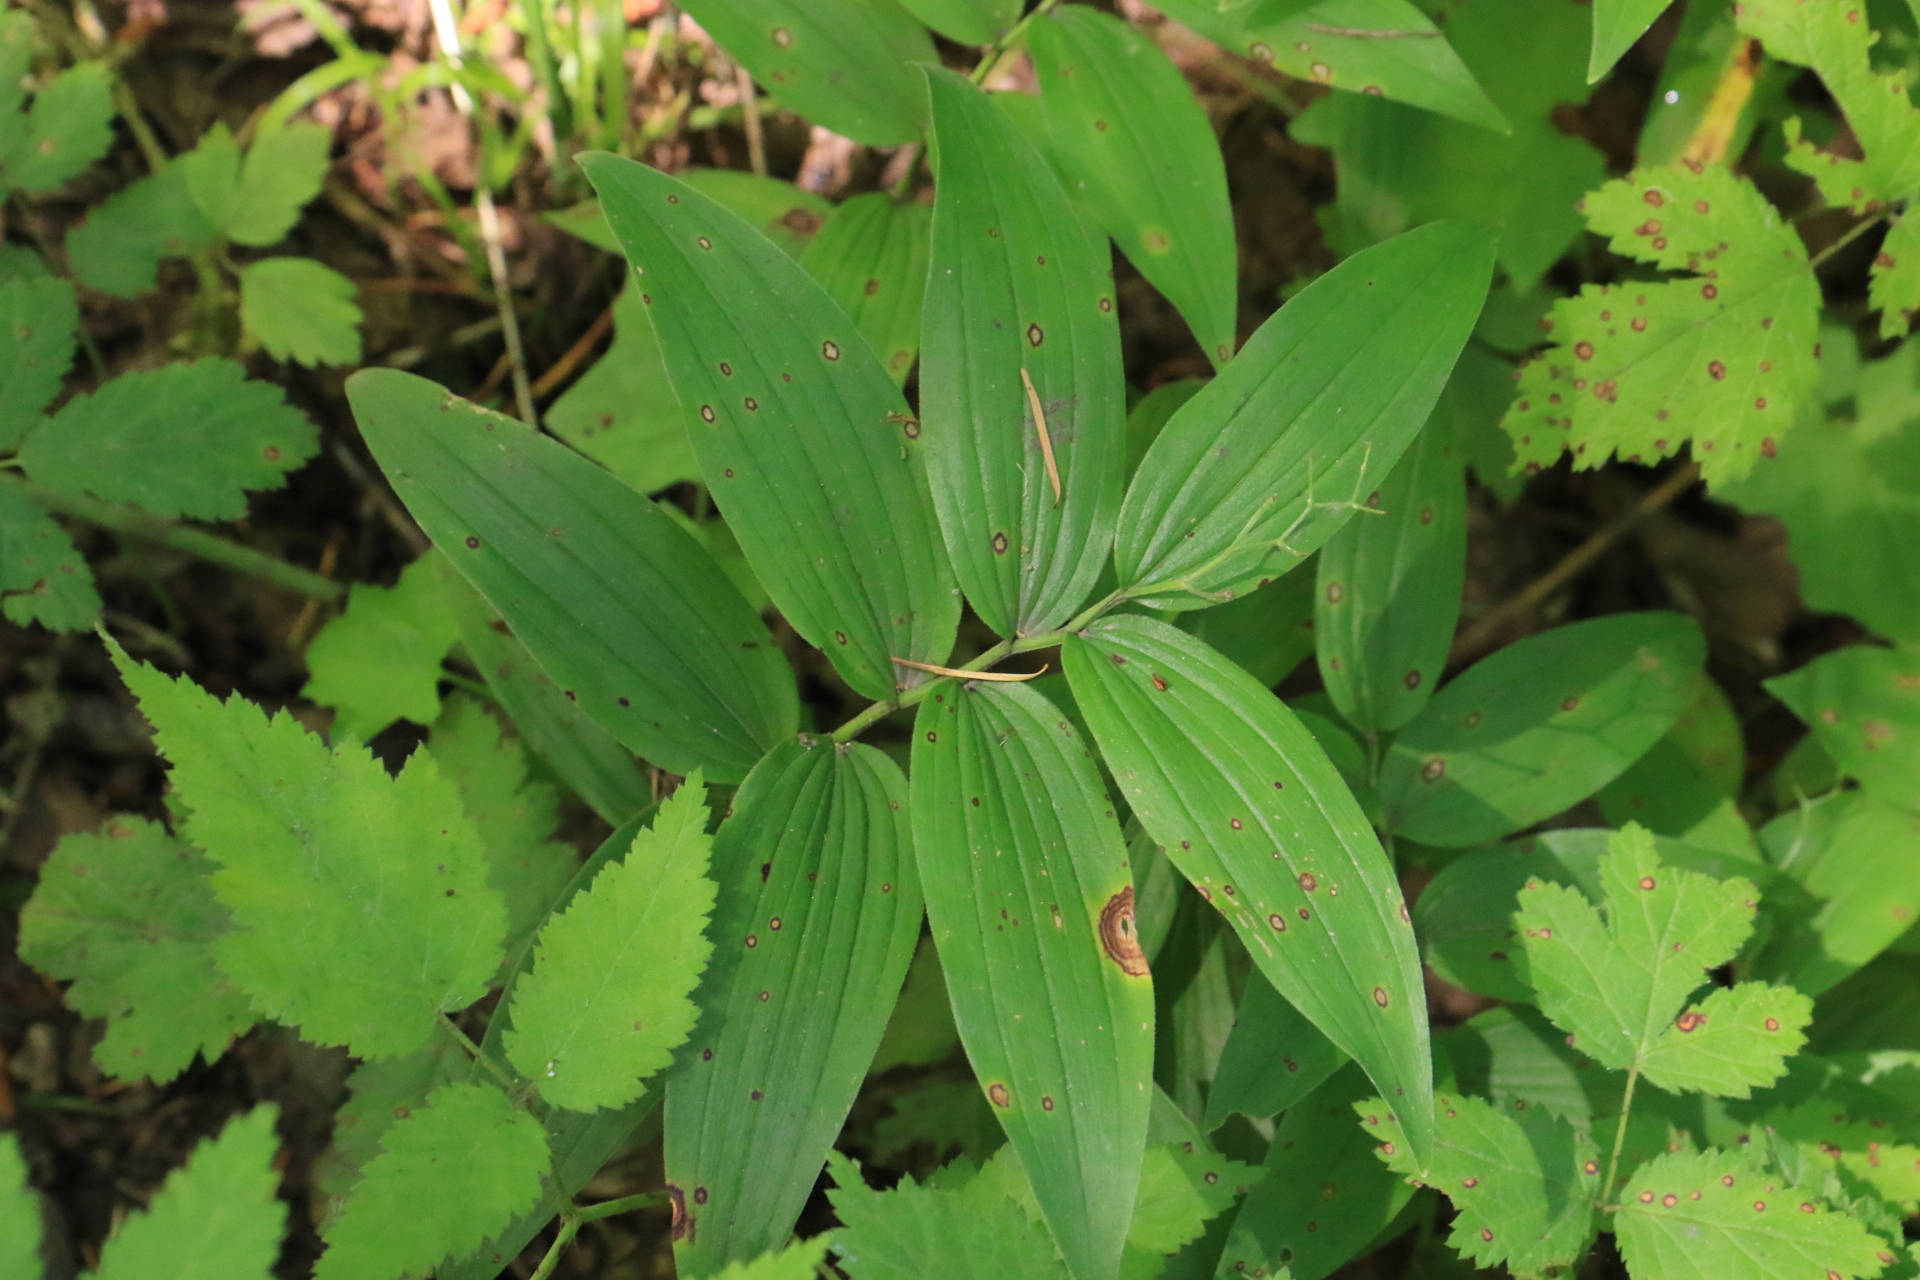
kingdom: Plantae
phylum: Tracheophyta
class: Liliopsida
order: Asparagales
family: Asparagaceae
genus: Maianthemum
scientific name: Maianthemum stellatum
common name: Little false solomon's seal
